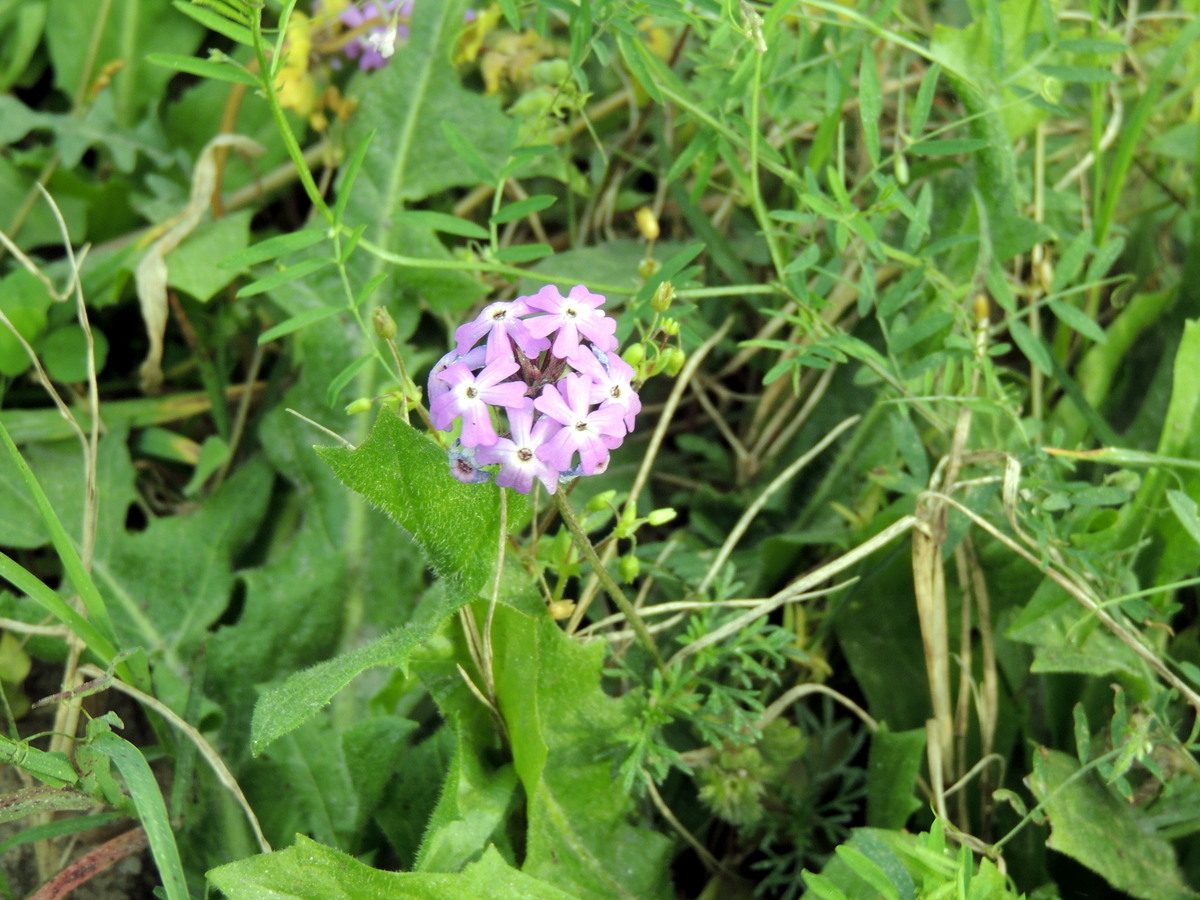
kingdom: Plantae
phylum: Tracheophyta
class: Magnoliopsida
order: Lamiales
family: Verbenaceae
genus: Verbena
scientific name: Verbena
